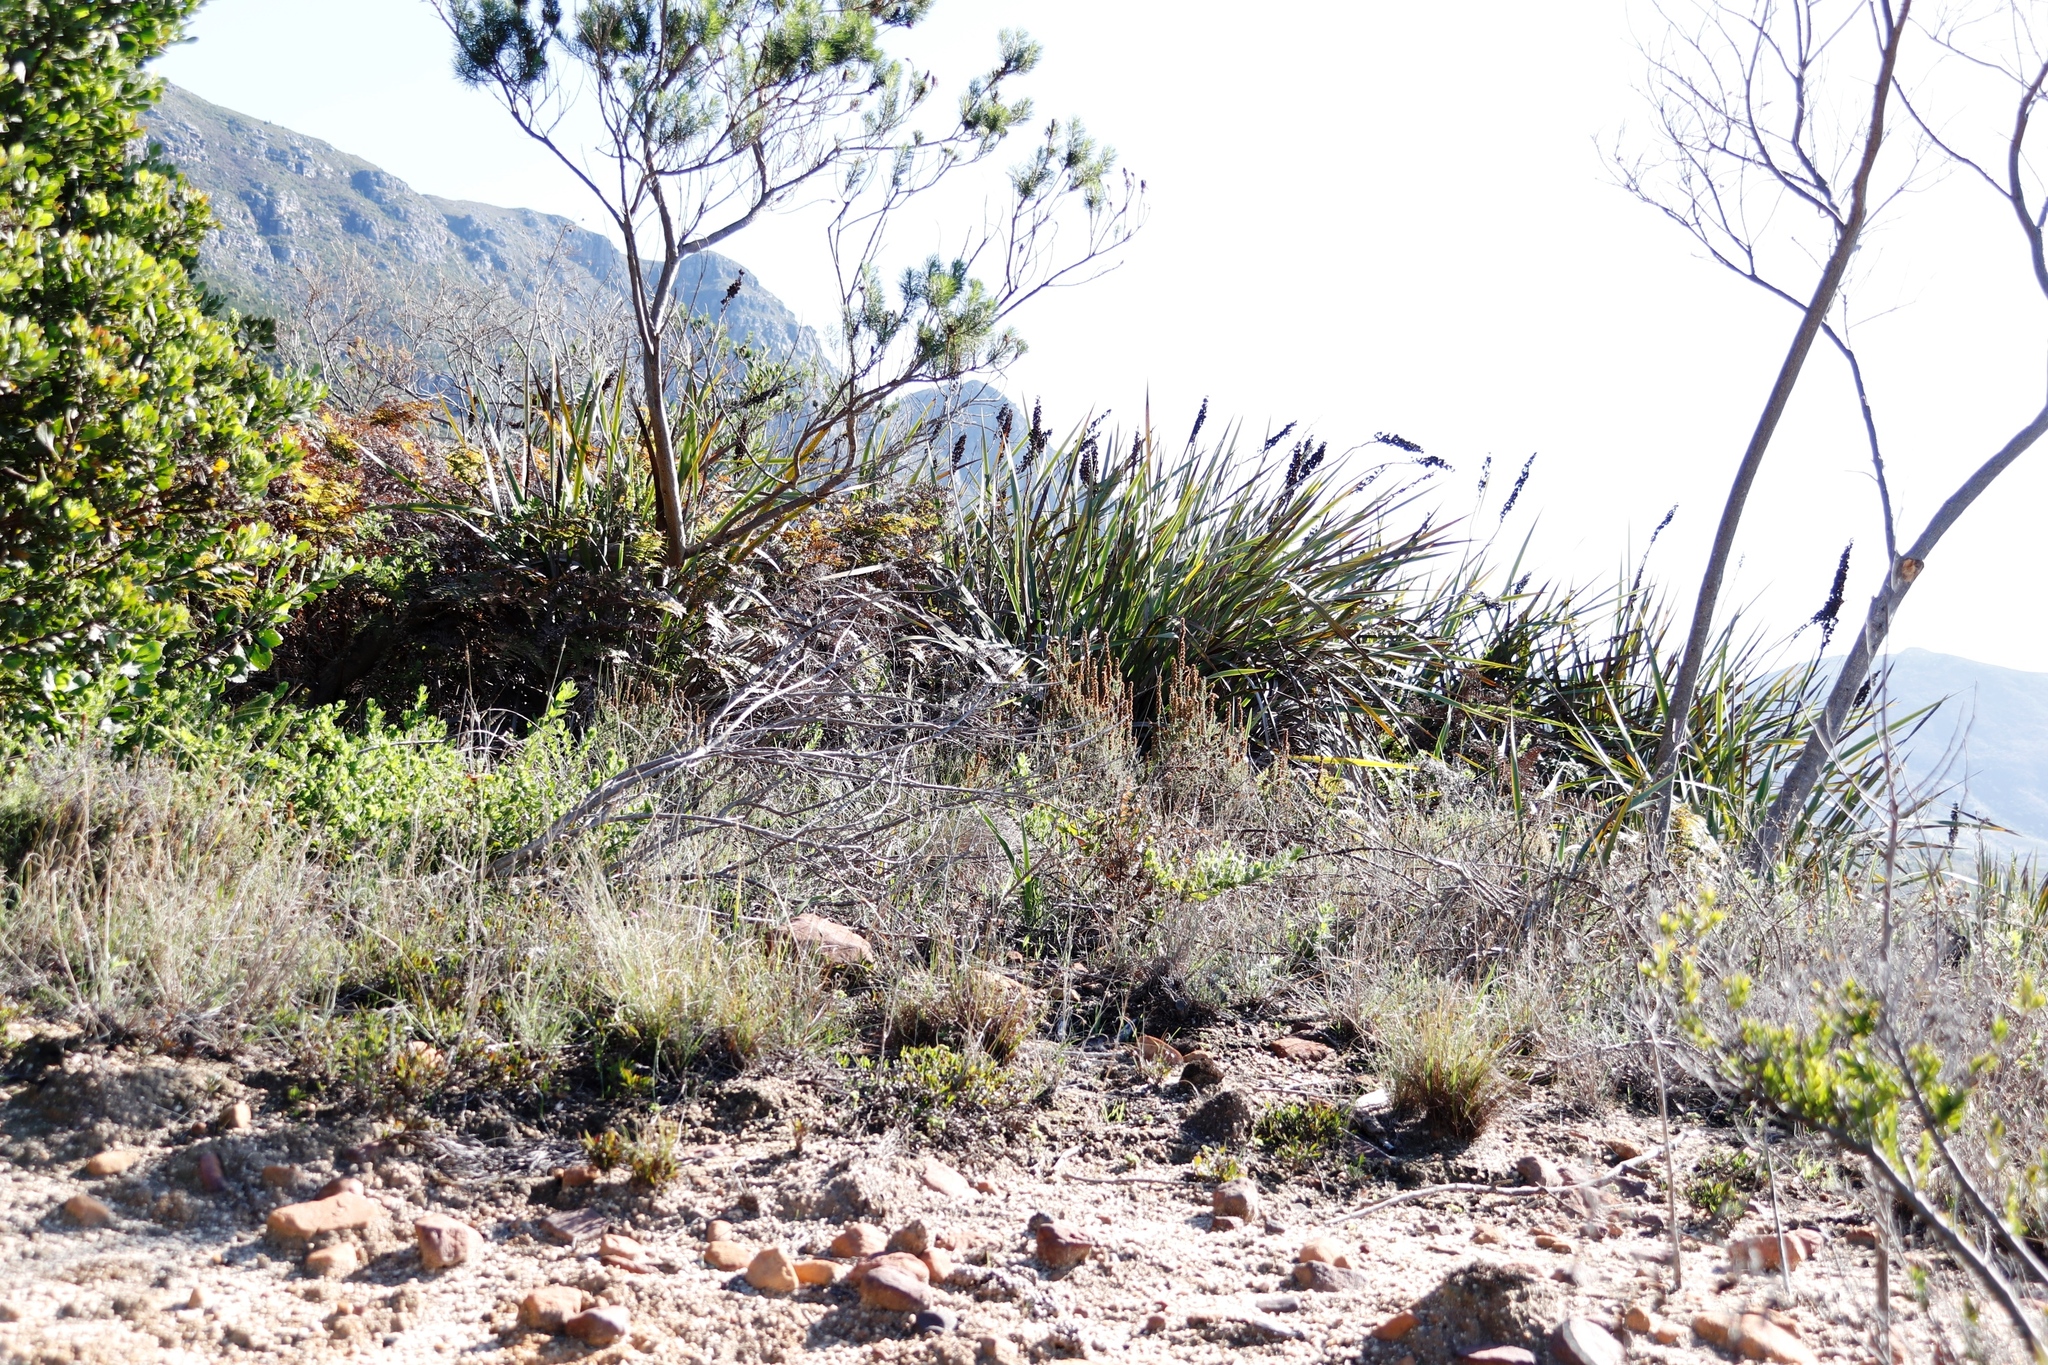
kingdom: Plantae
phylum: Tracheophyta
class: Magnoliopsida
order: Fabales
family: Fabaceae
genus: Psoralea
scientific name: Psoralea pinnata
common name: African scurfpea
